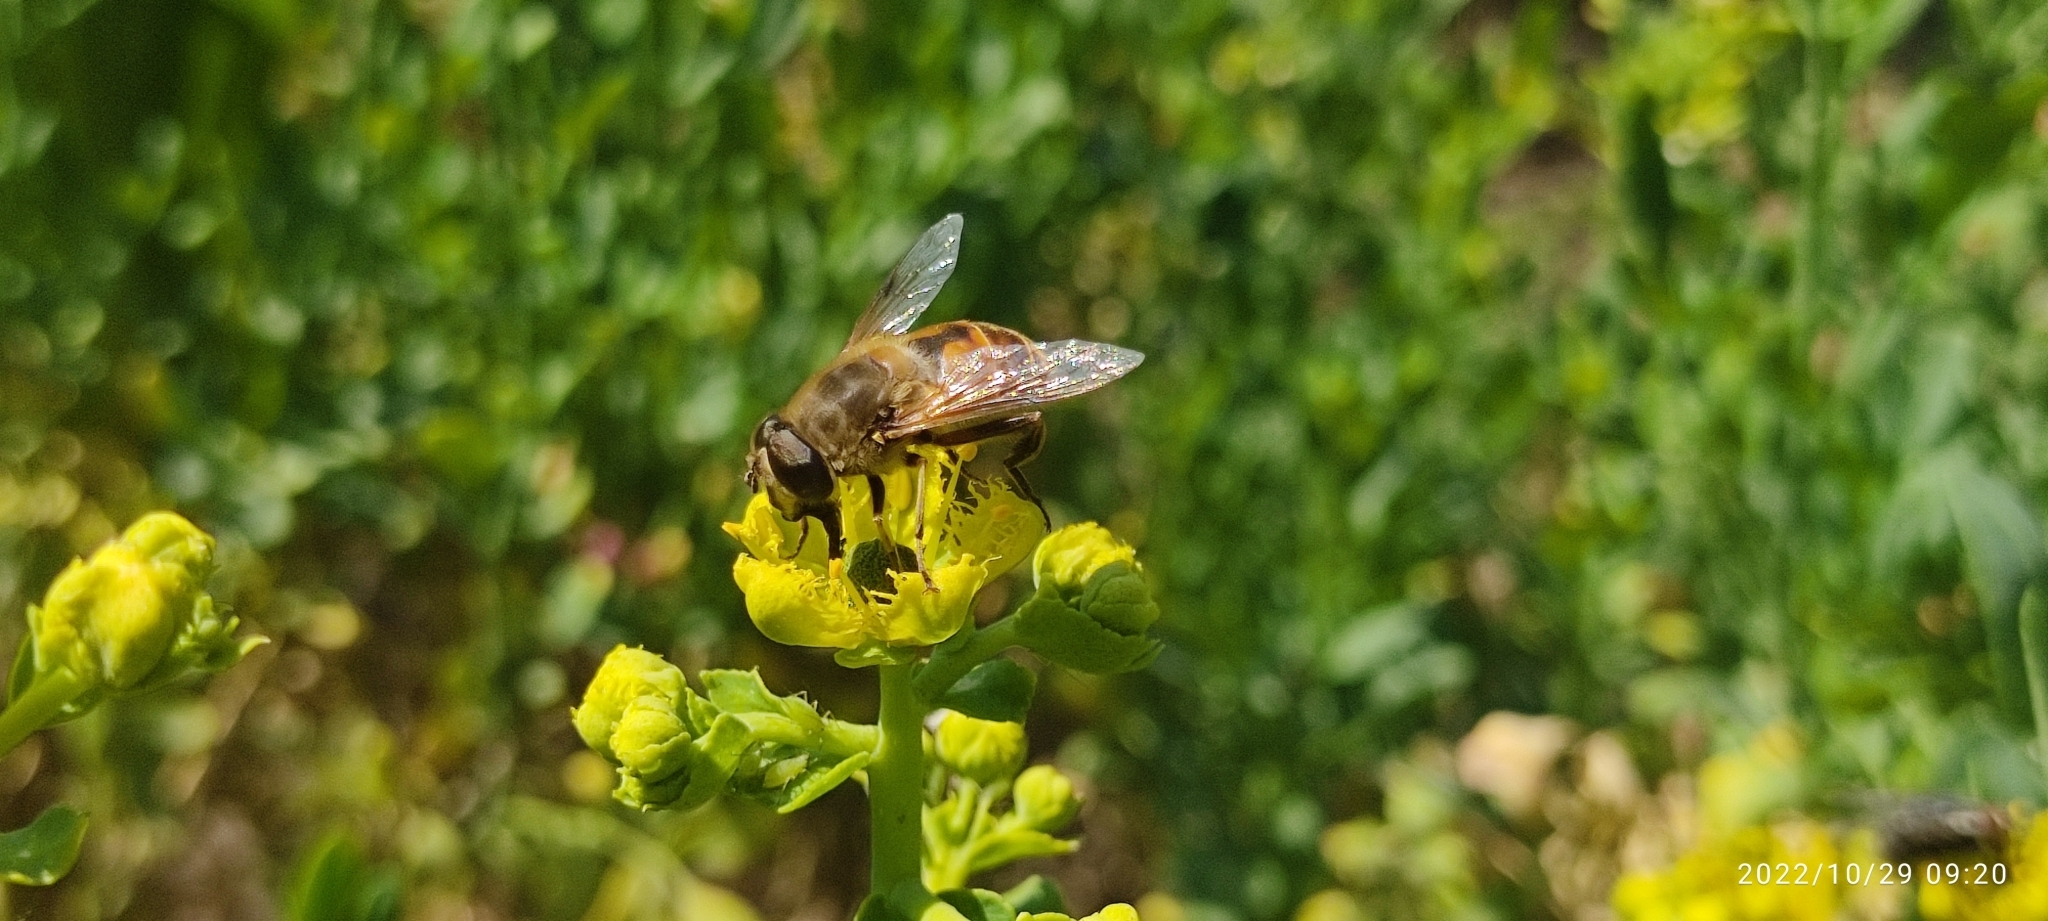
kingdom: Animalia
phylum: Arthropoda
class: Insecta
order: Diptera
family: Syrphidae
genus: Eristalis
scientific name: Eristalis tenax
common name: Drone fly
